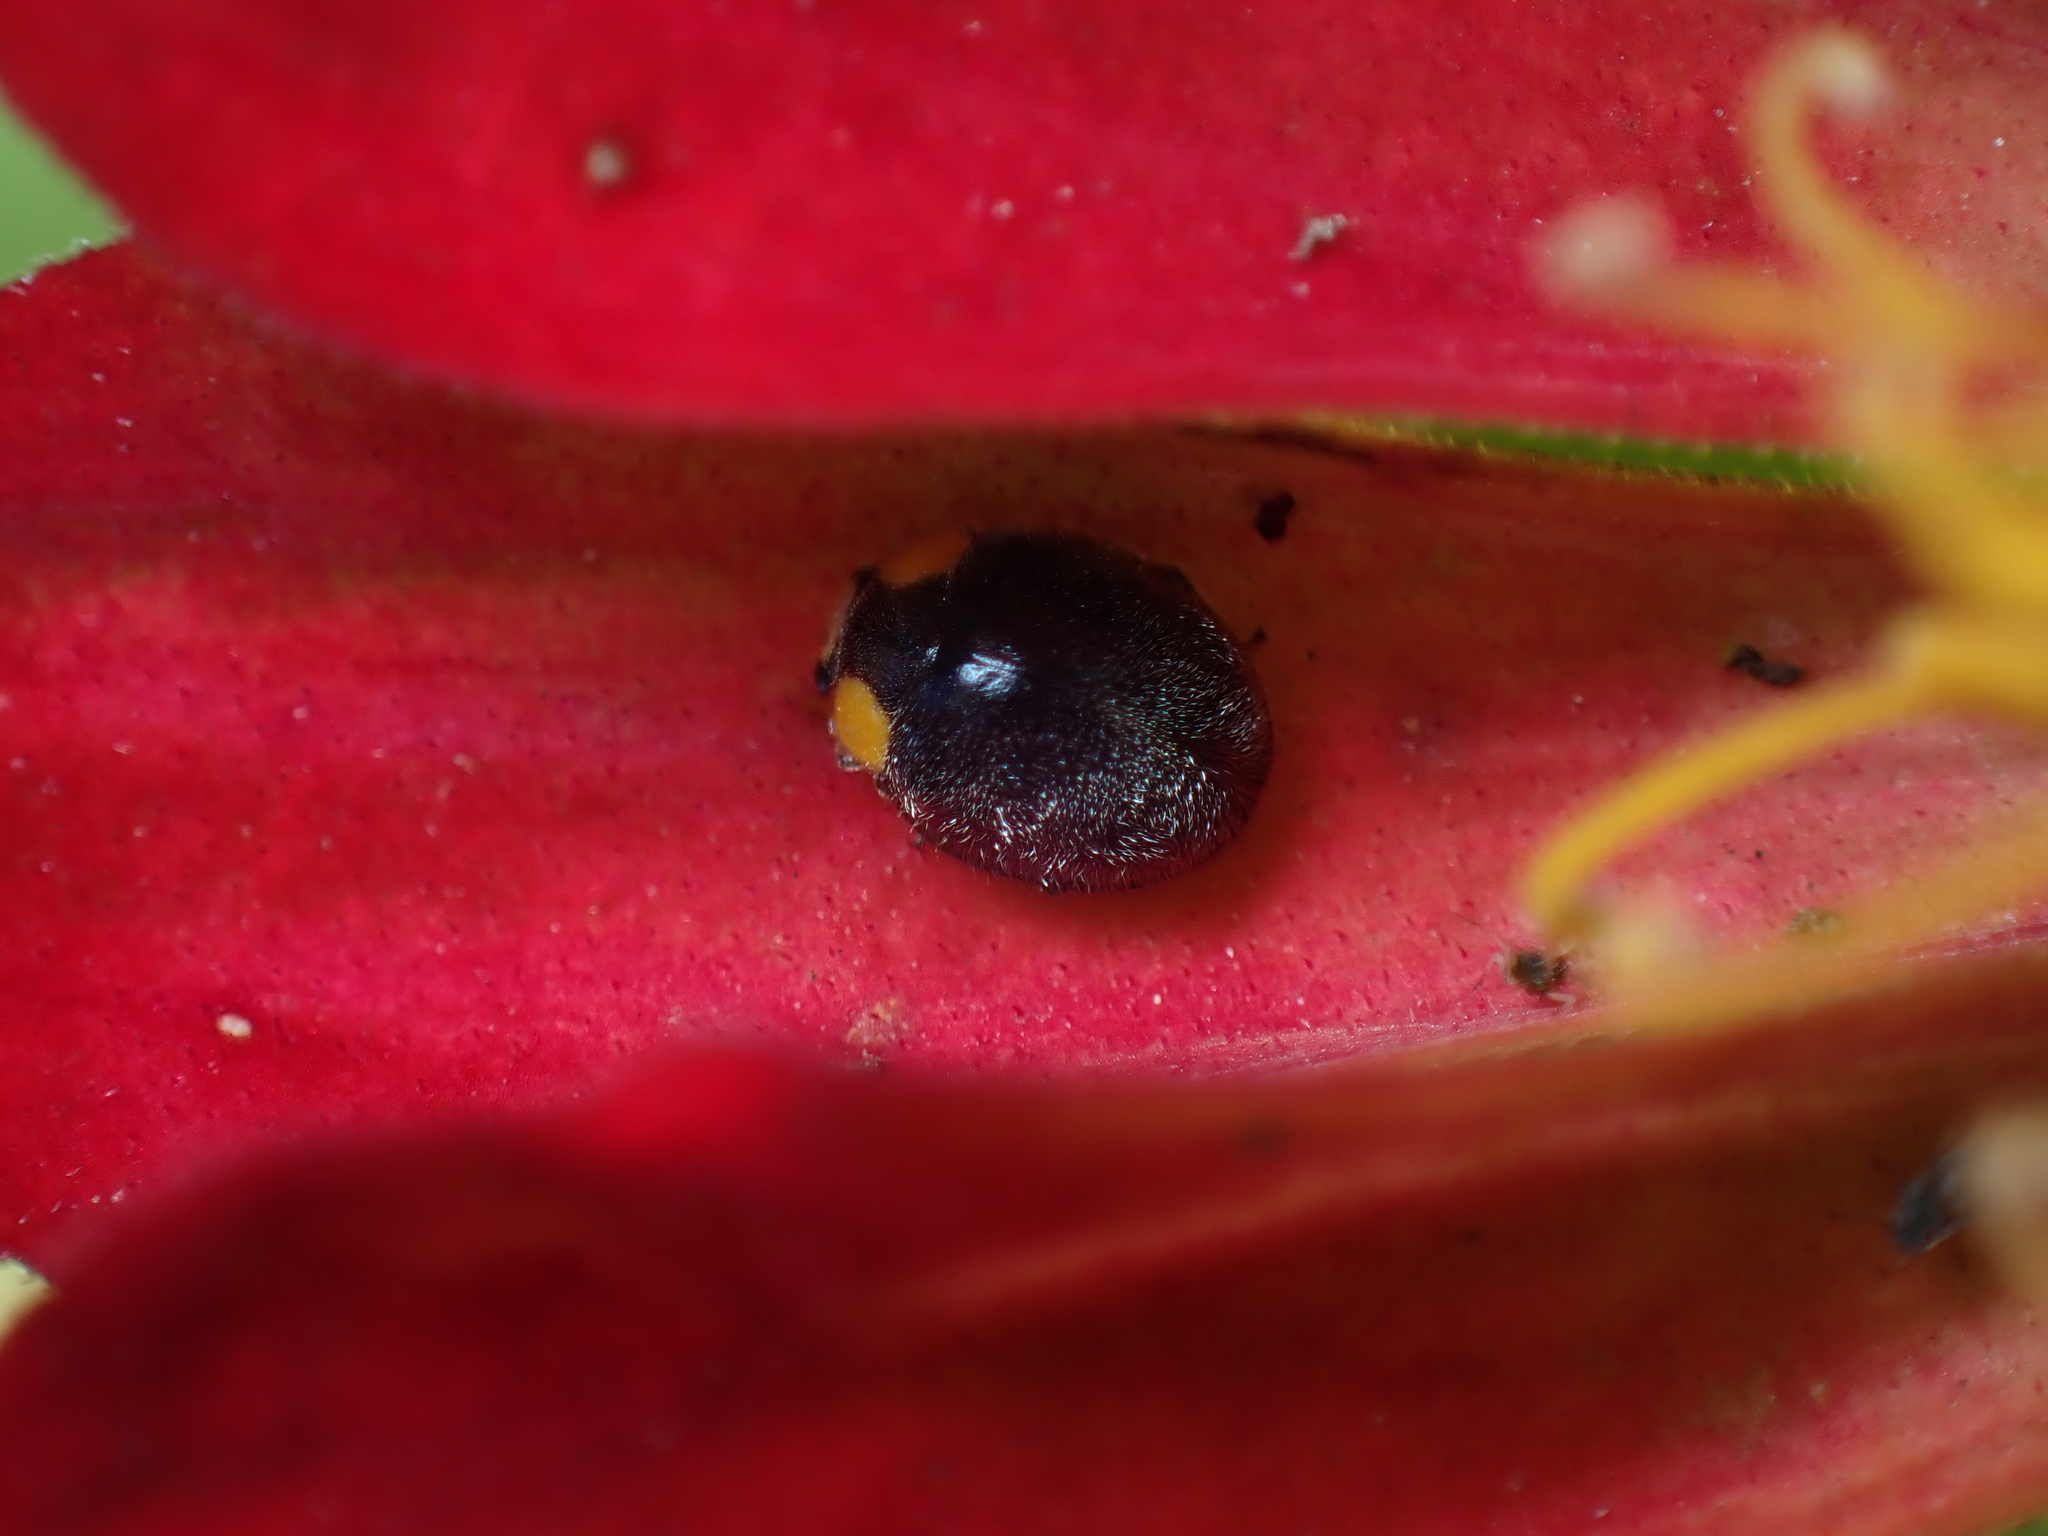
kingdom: Animalia
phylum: Arthropoda
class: Insecta
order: Coleoptera
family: Coccinellidae
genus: Scymnodes
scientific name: Scymnodes lividigaster
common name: Yellowshouldered lady beetle
